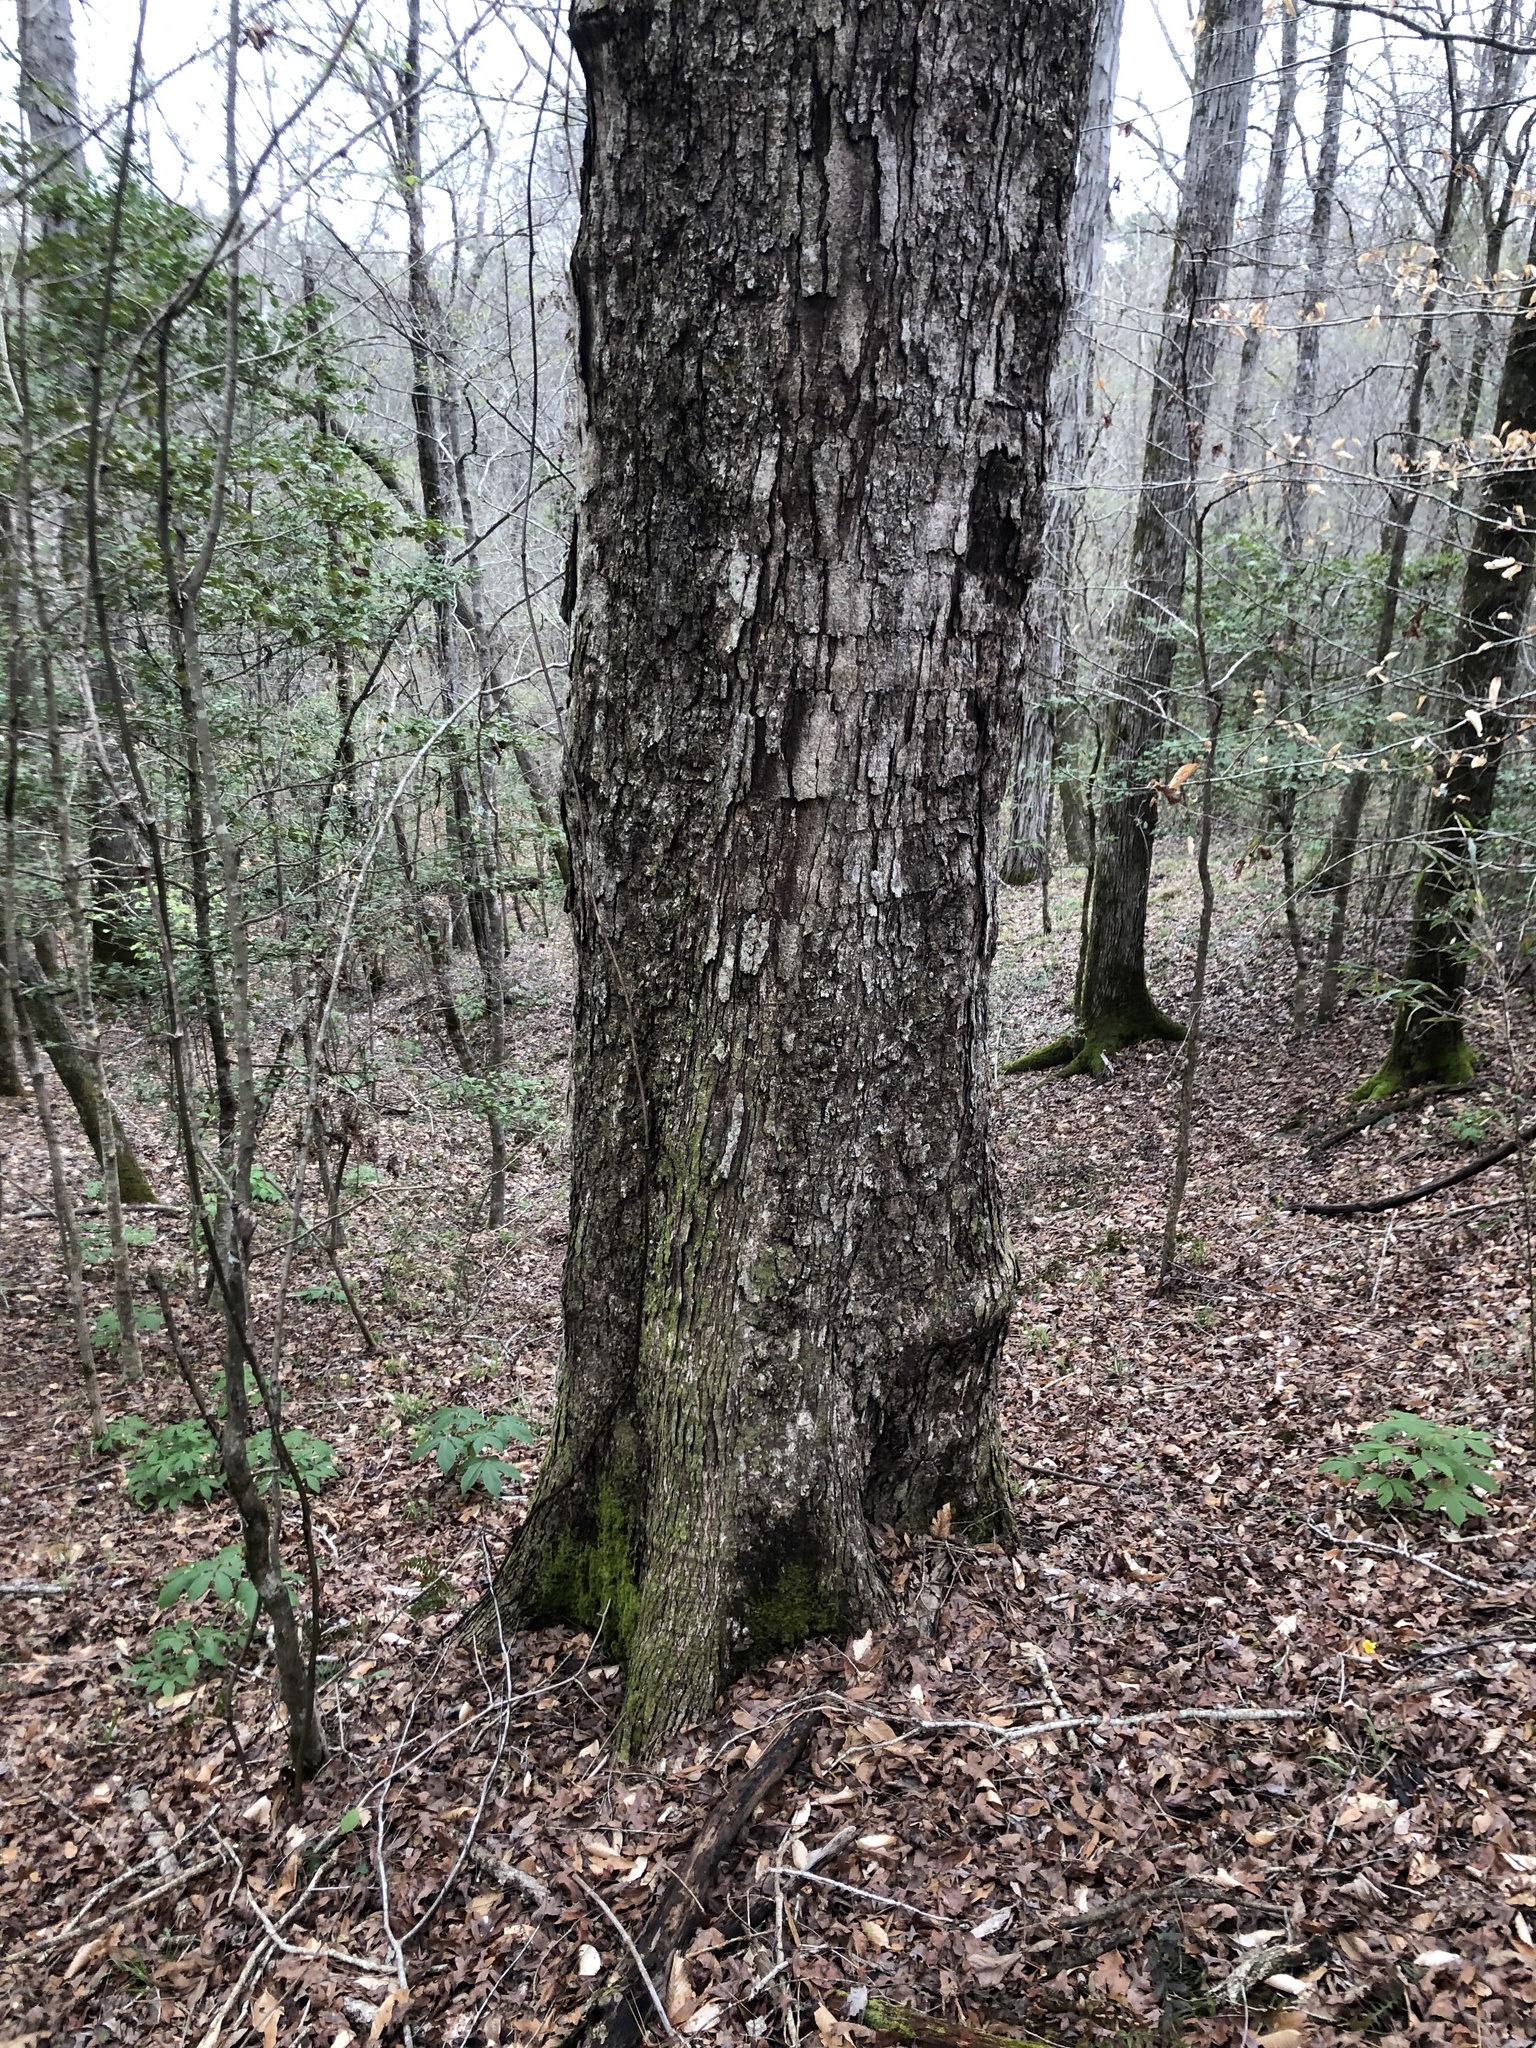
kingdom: Plantae
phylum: Tracheophyta
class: Magnoliopsida
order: Fagales
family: Fagaceae
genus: Quercus
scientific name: Quercus alba
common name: White oak
